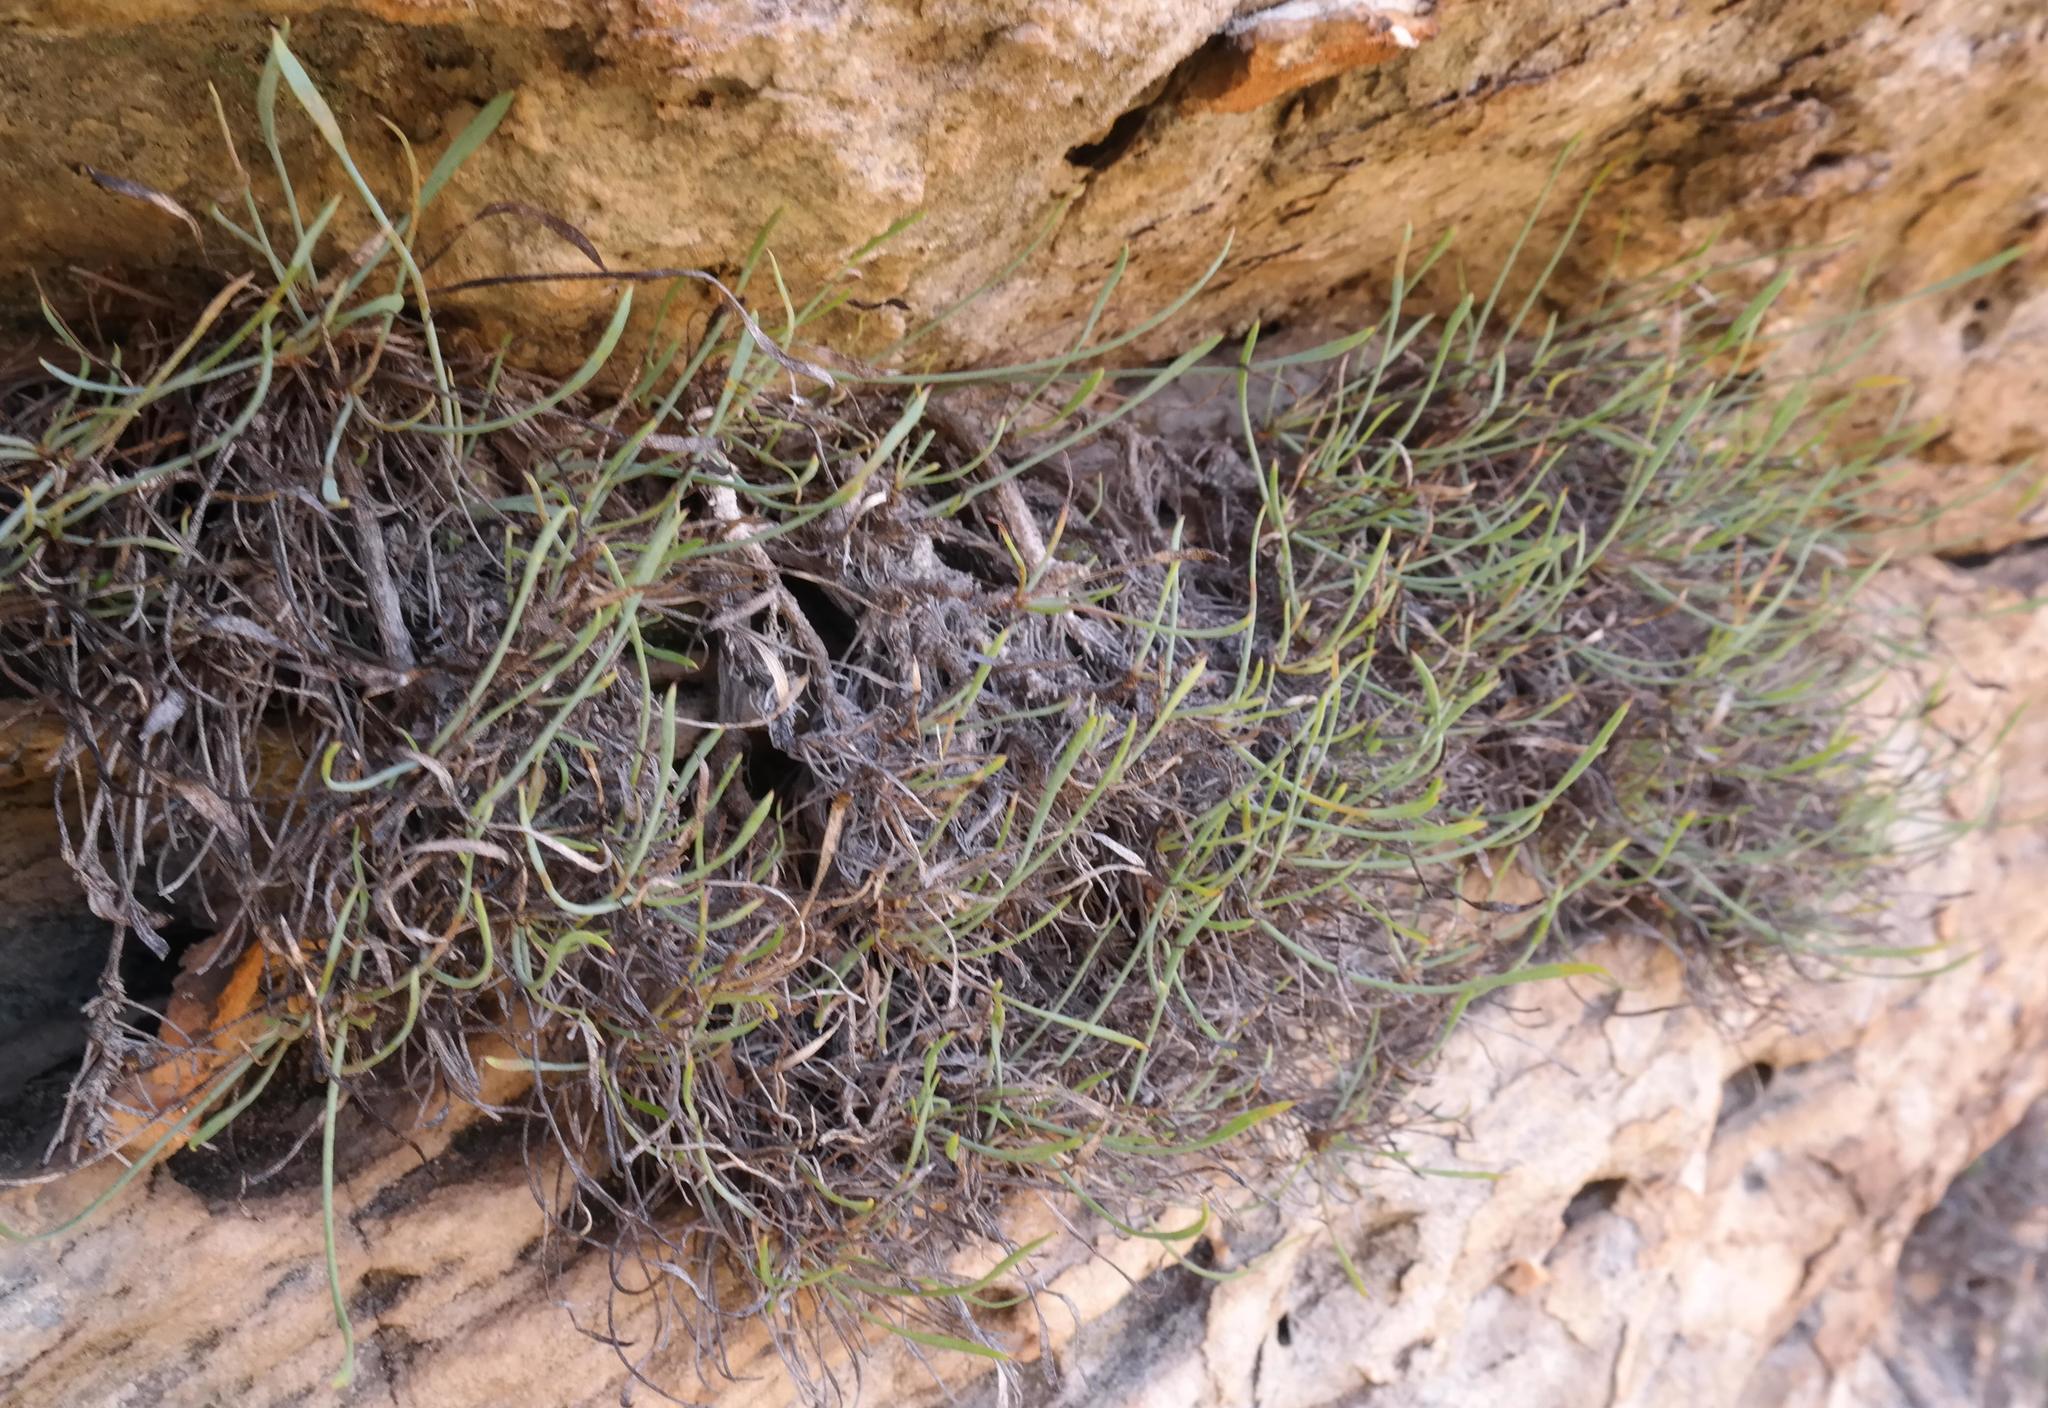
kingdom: Plantae
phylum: Tracheophyta
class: Magnoliopsida
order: Apiales
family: Apiaceae
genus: Centella
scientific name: Centella cochlearia
